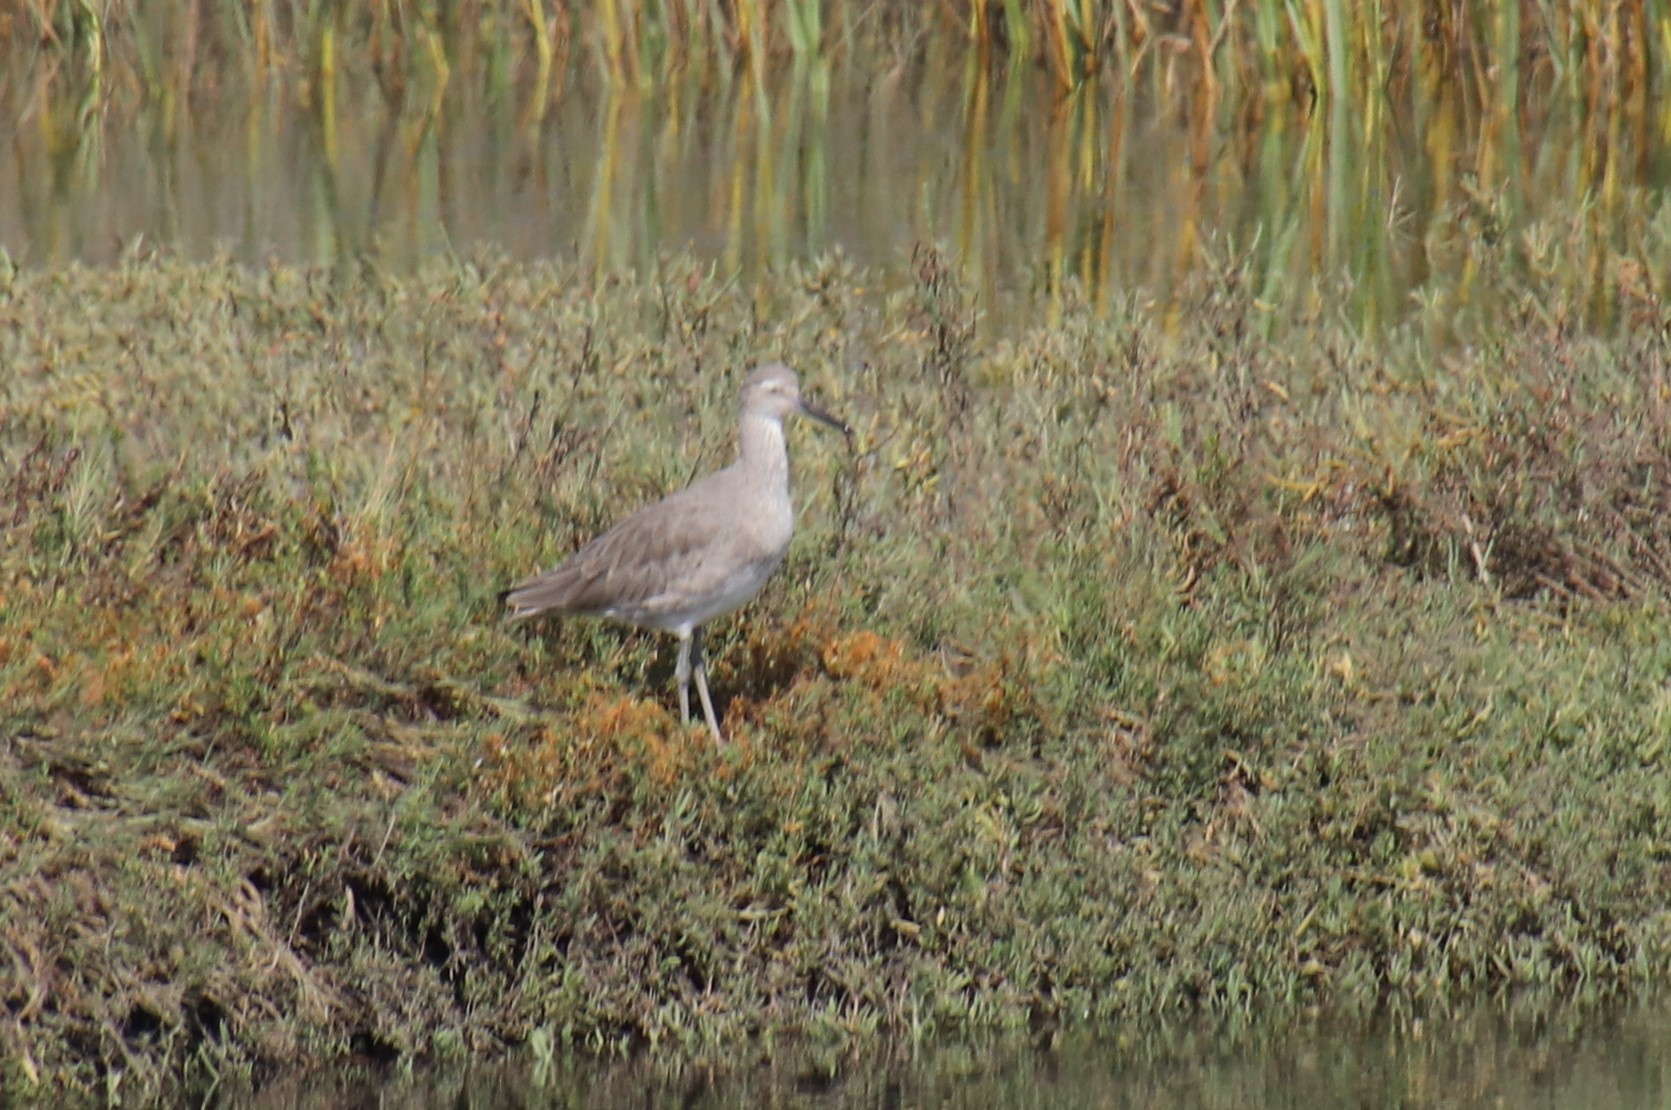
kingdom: Animalia
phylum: Chordata
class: Aves
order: Charadriiformes
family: Scolopacidae
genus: Tringa
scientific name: Tringa semipalmata
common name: Willet
